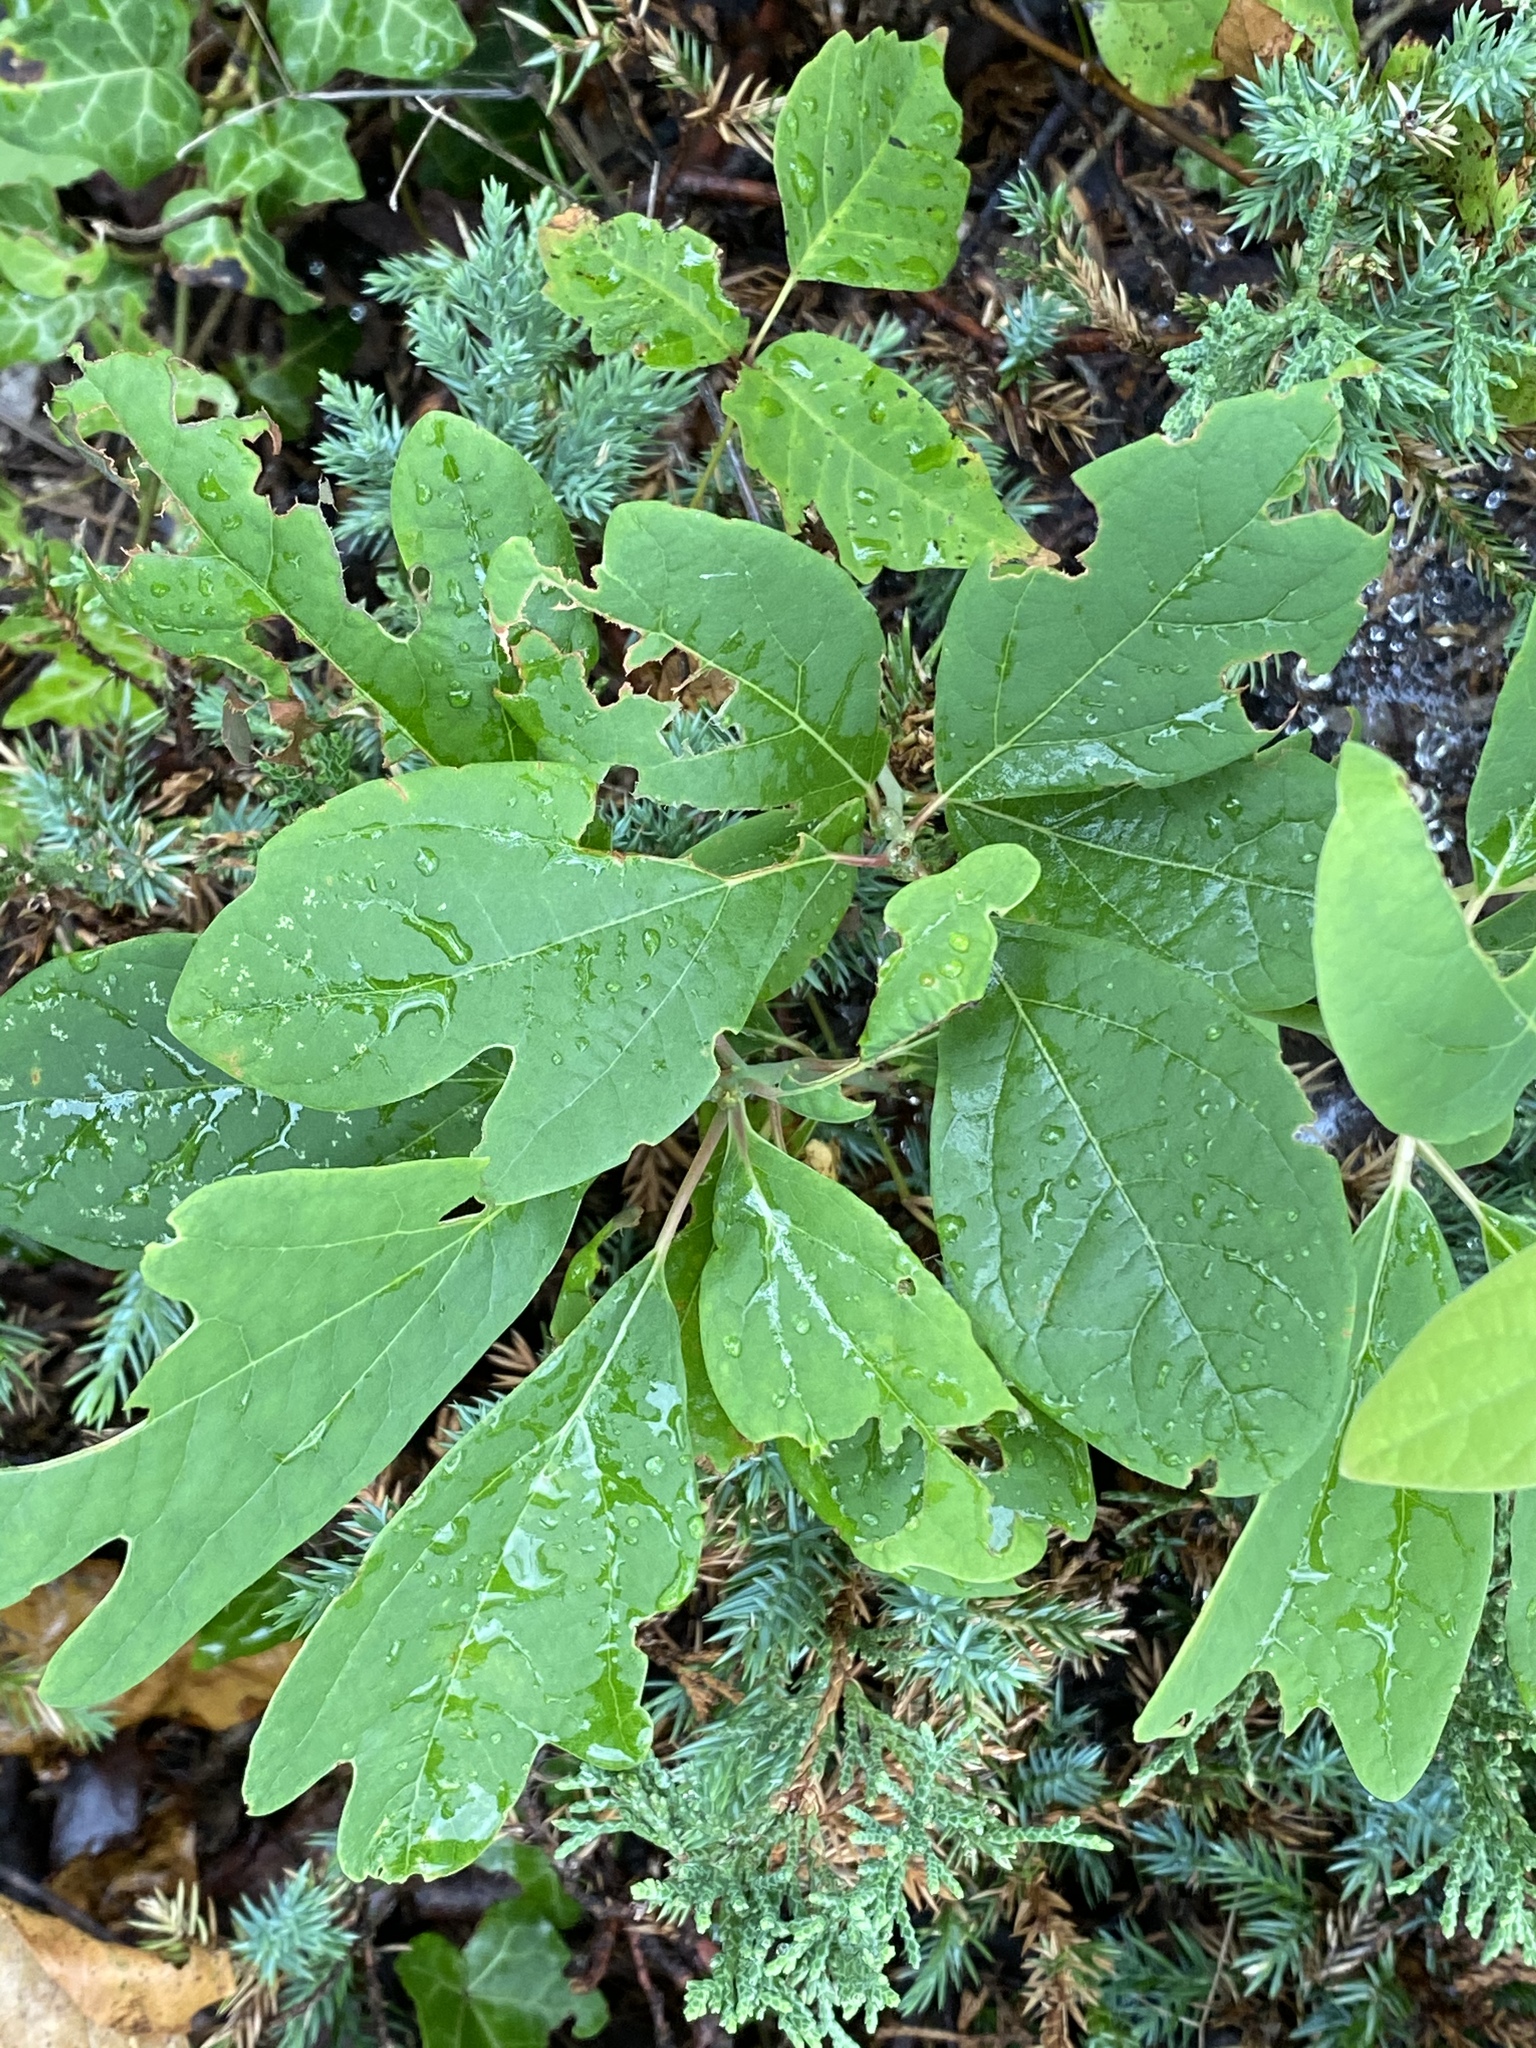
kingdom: Plantae
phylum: Tracheophyta
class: Magnoliopsida
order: Laurales
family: Lauraceae
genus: Sassafras
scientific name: Sassafras albidum
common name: Sassafras
